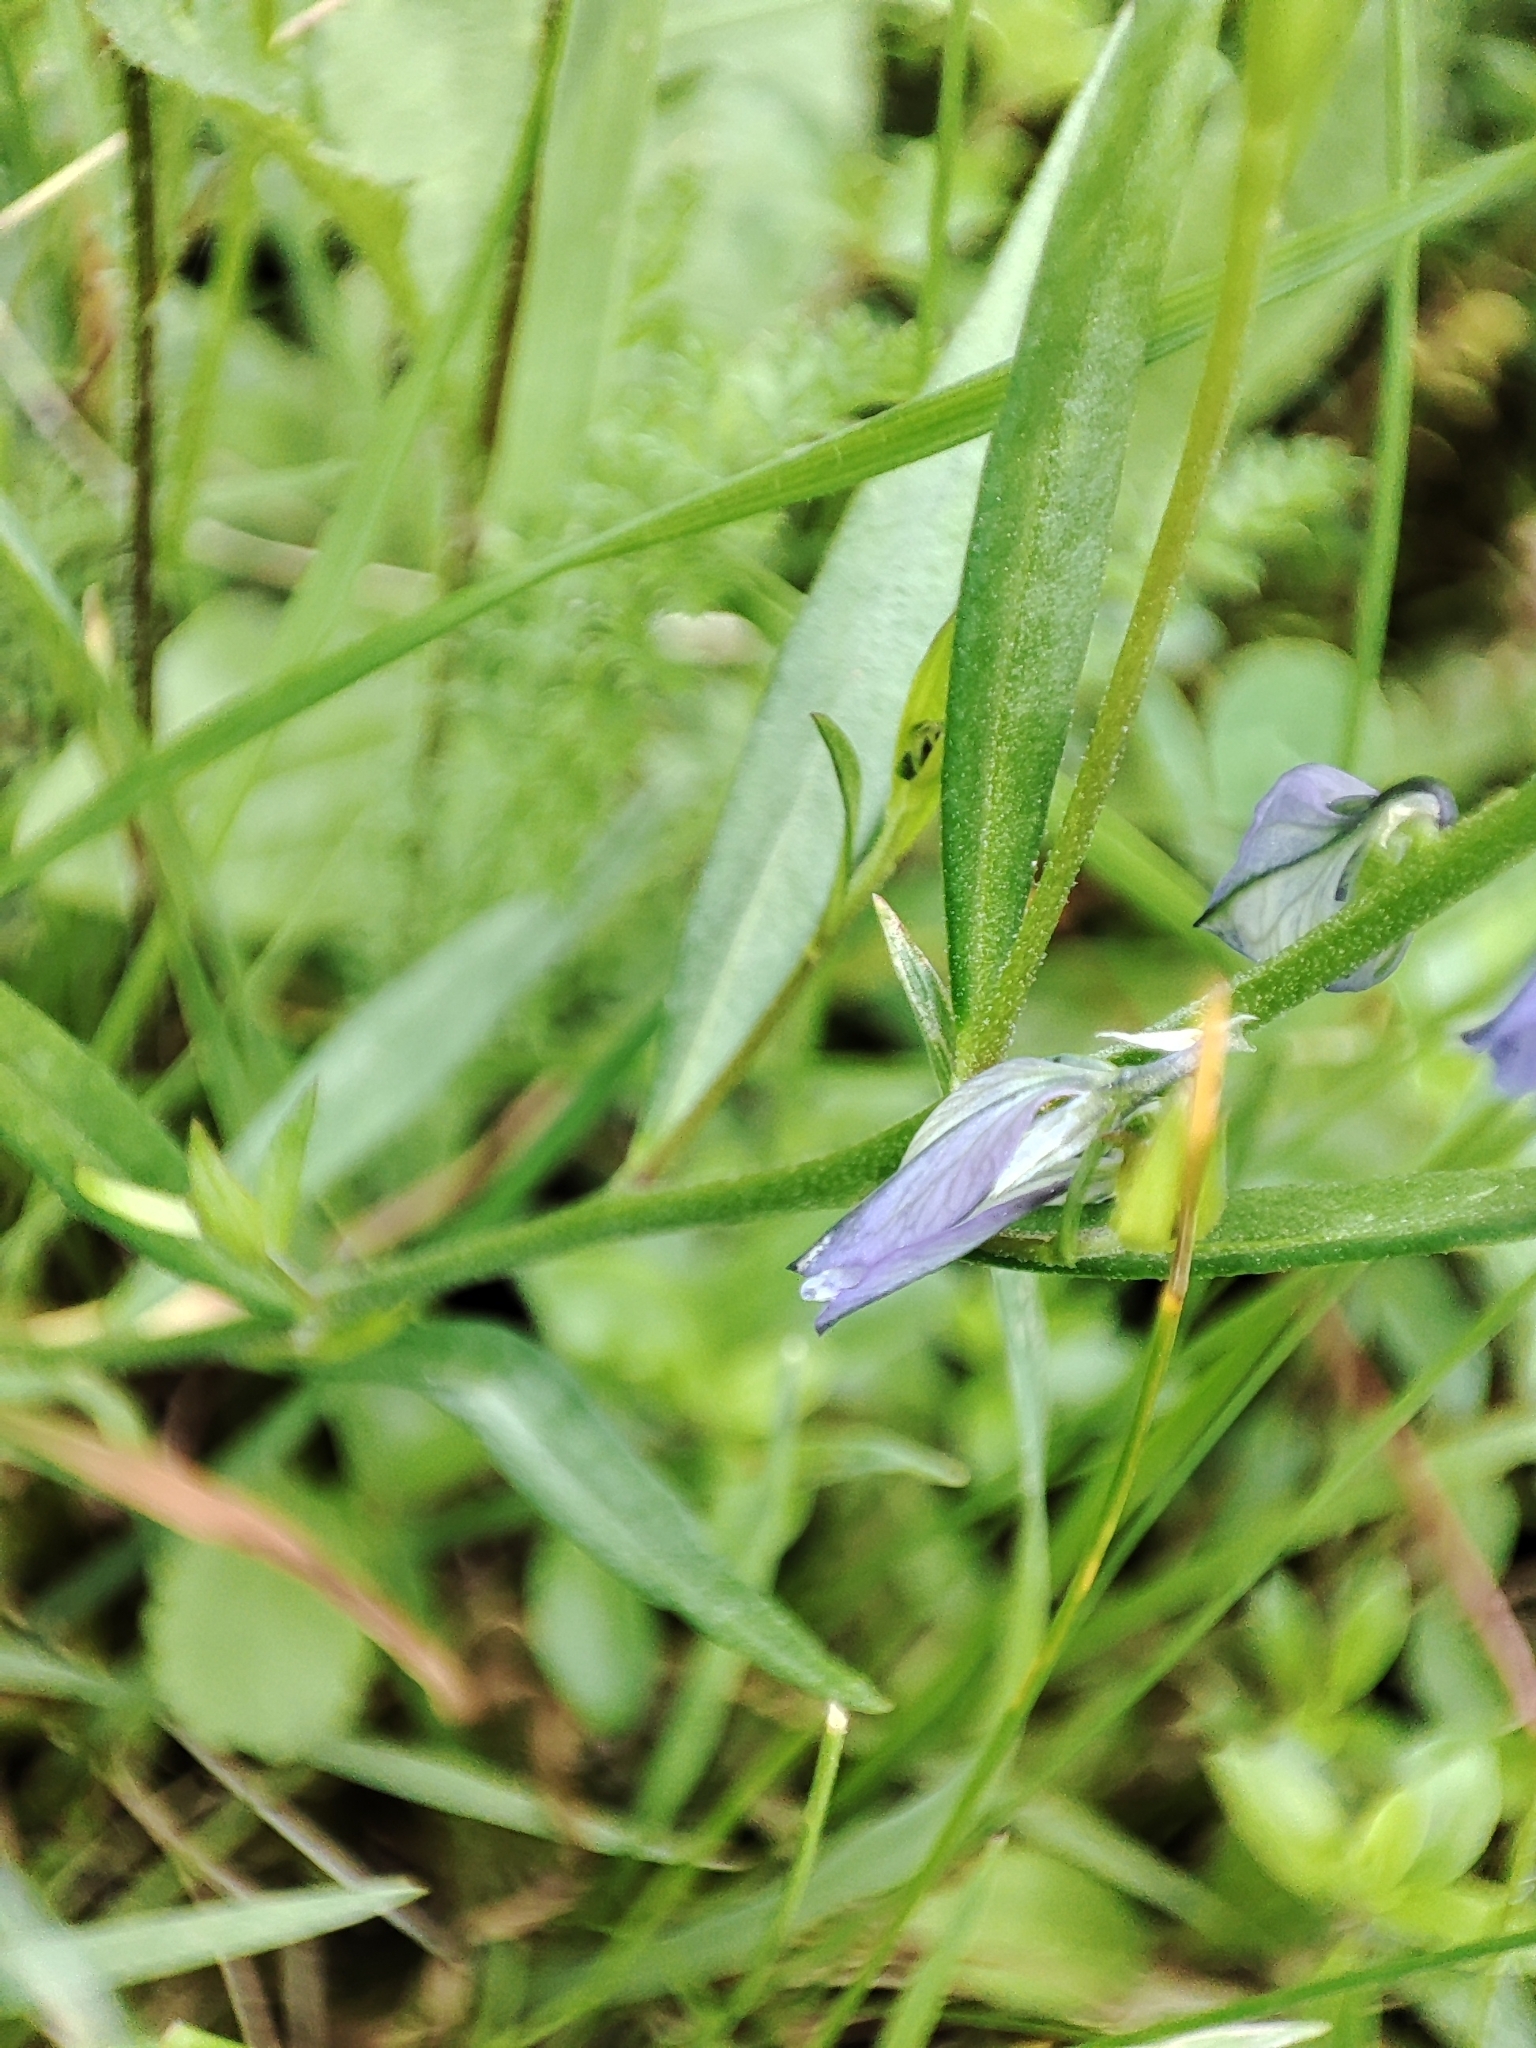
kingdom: Plantae
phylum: Tracheophyta
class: Magnoliopsida
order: Fabales
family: Polygalaceae
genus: Polygala
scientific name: Polygala vulgaris
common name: Common milkwort
